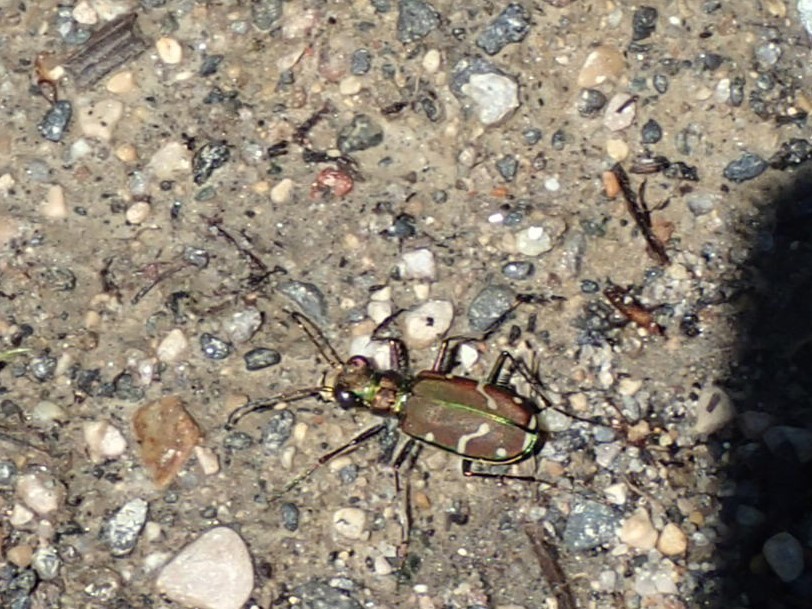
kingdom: Animalia
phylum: Arthropoda
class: Insecta
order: Coleoptera
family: Carabidae
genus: Cicindela
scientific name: Cicindela limbalis
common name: Common claybank tiger beetle
